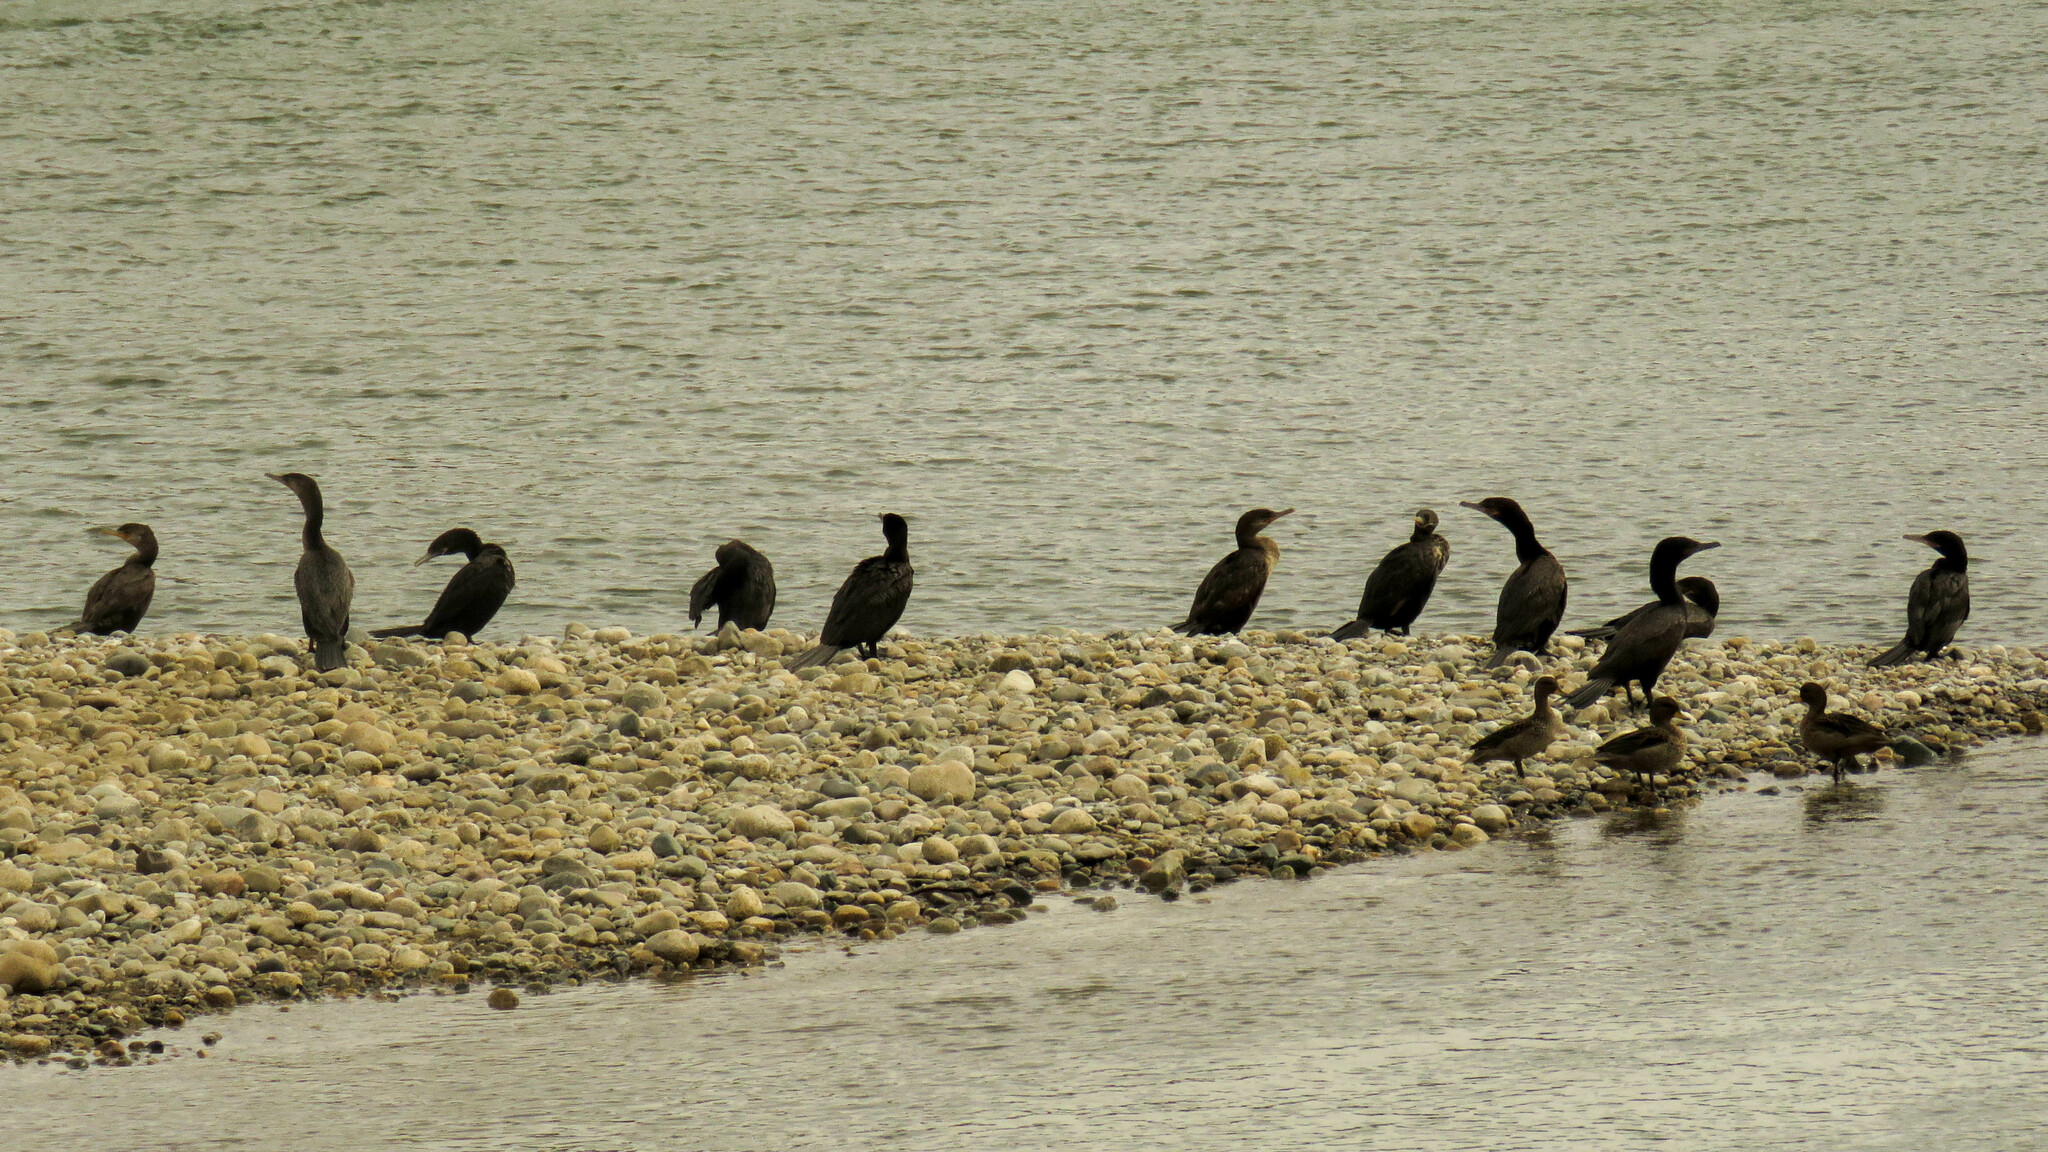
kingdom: Animalia
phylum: Chordata
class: Aves
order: Suliformes
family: Phalacrocoracidae
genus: Phalacrocorax
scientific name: Phalacrocorax brasilianus
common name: Neotropic cormorant
